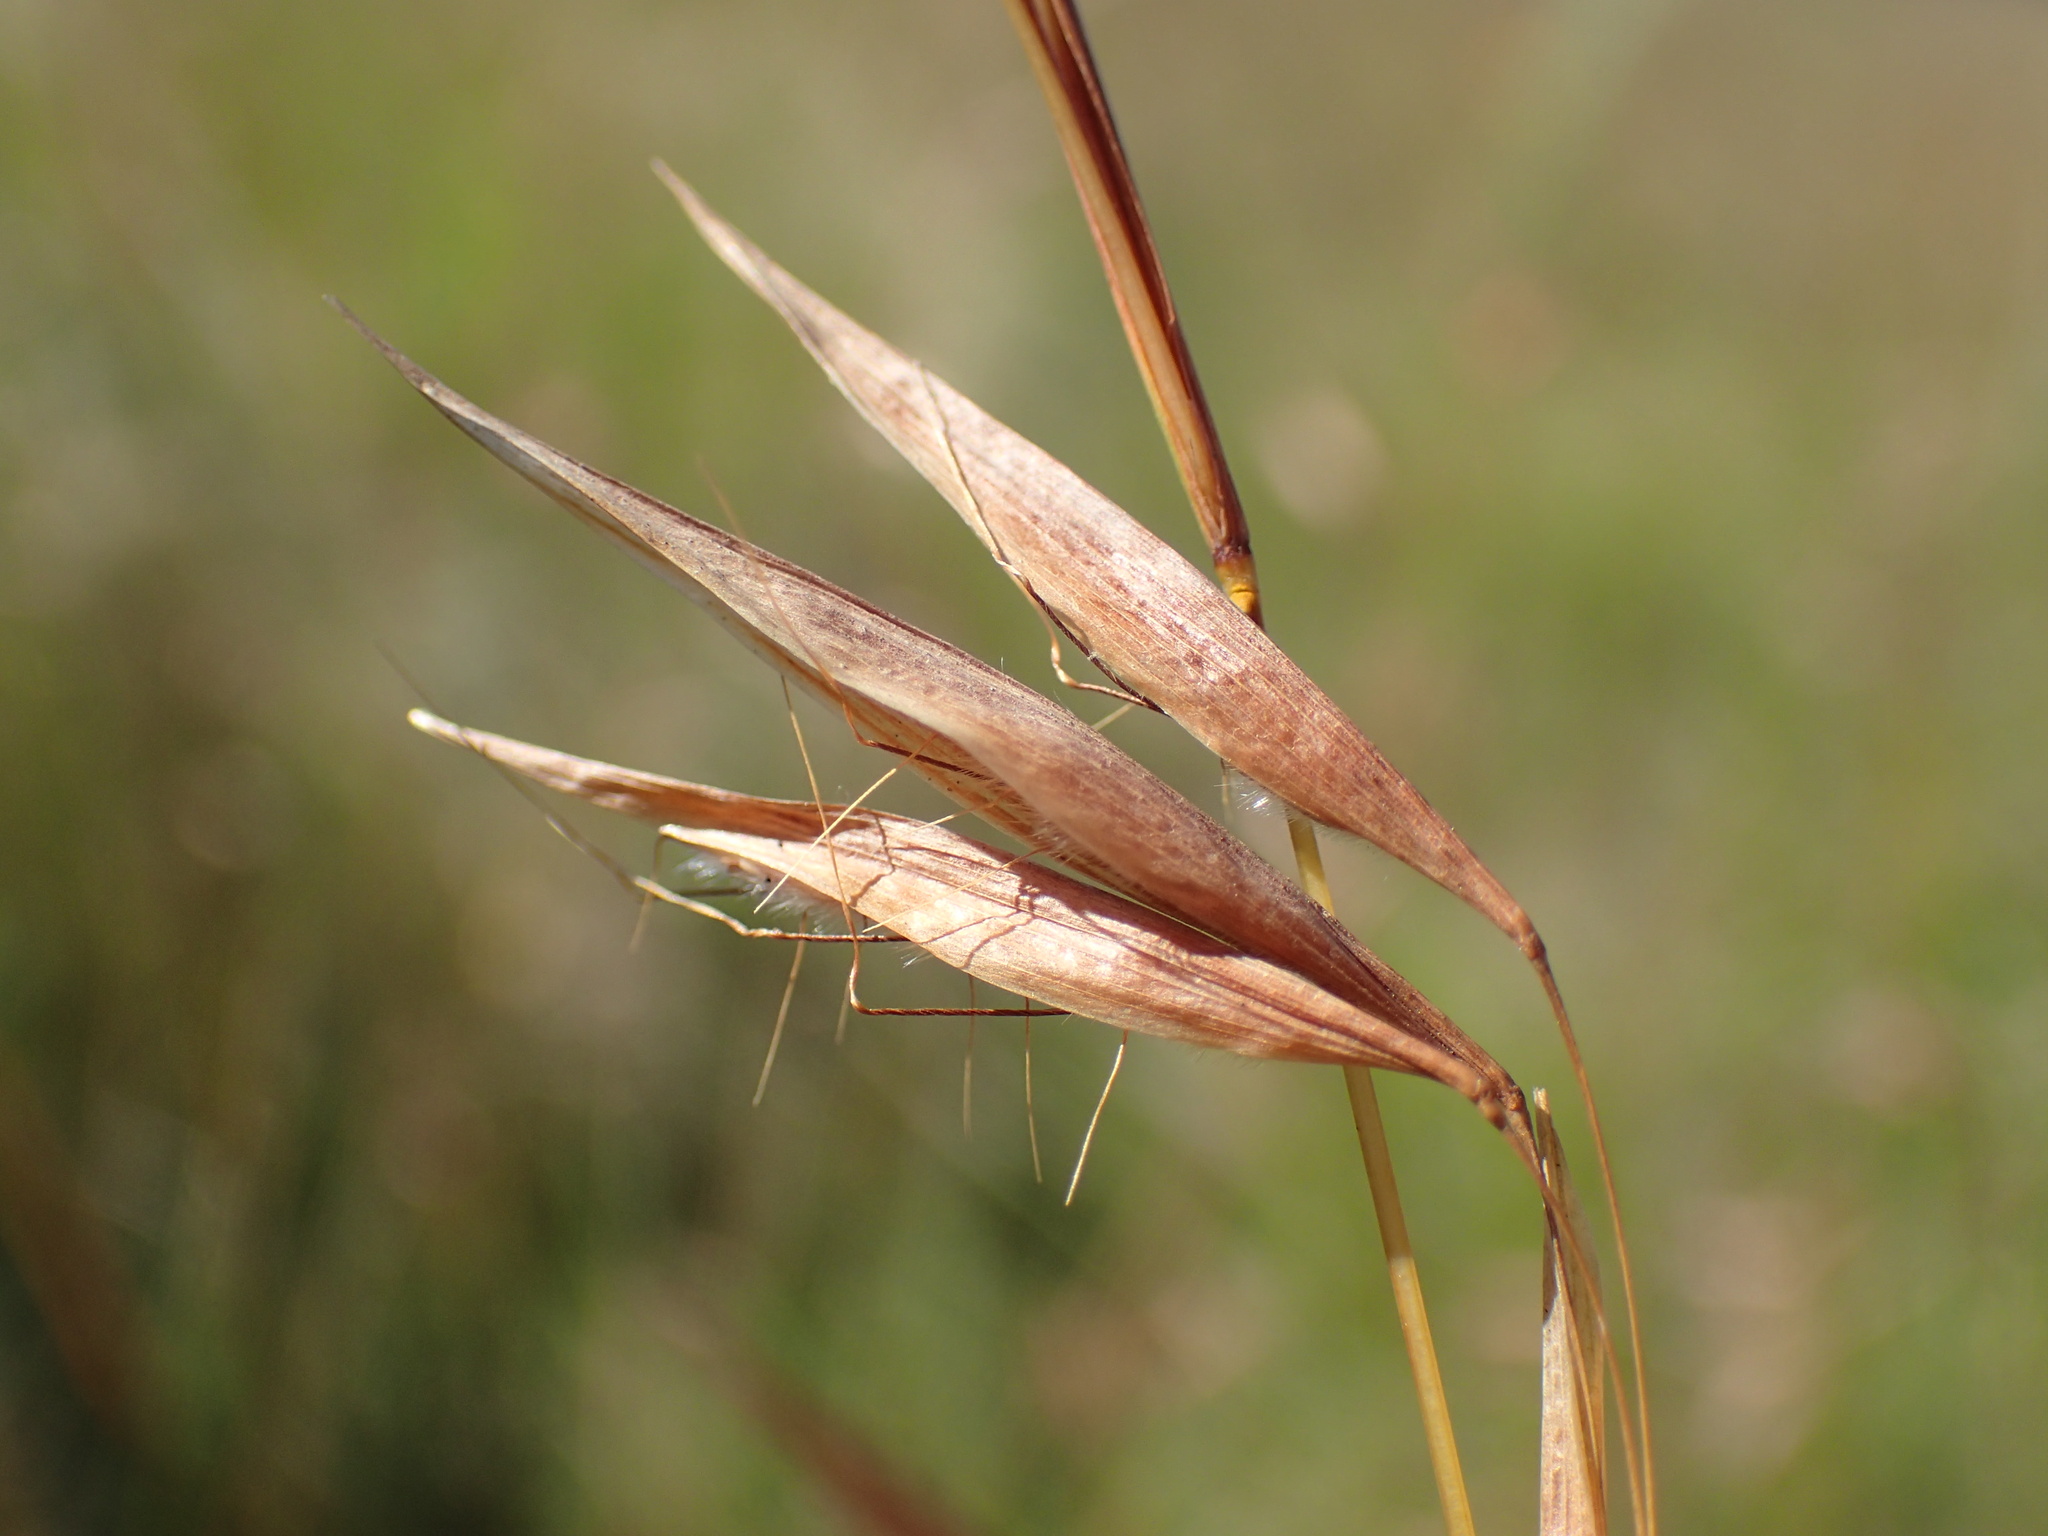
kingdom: Plantae
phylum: Tracheophyta
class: Liliopsida
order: Poales
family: Poaceae
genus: Monocymbium
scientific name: Monocymbium ceresiiforme
